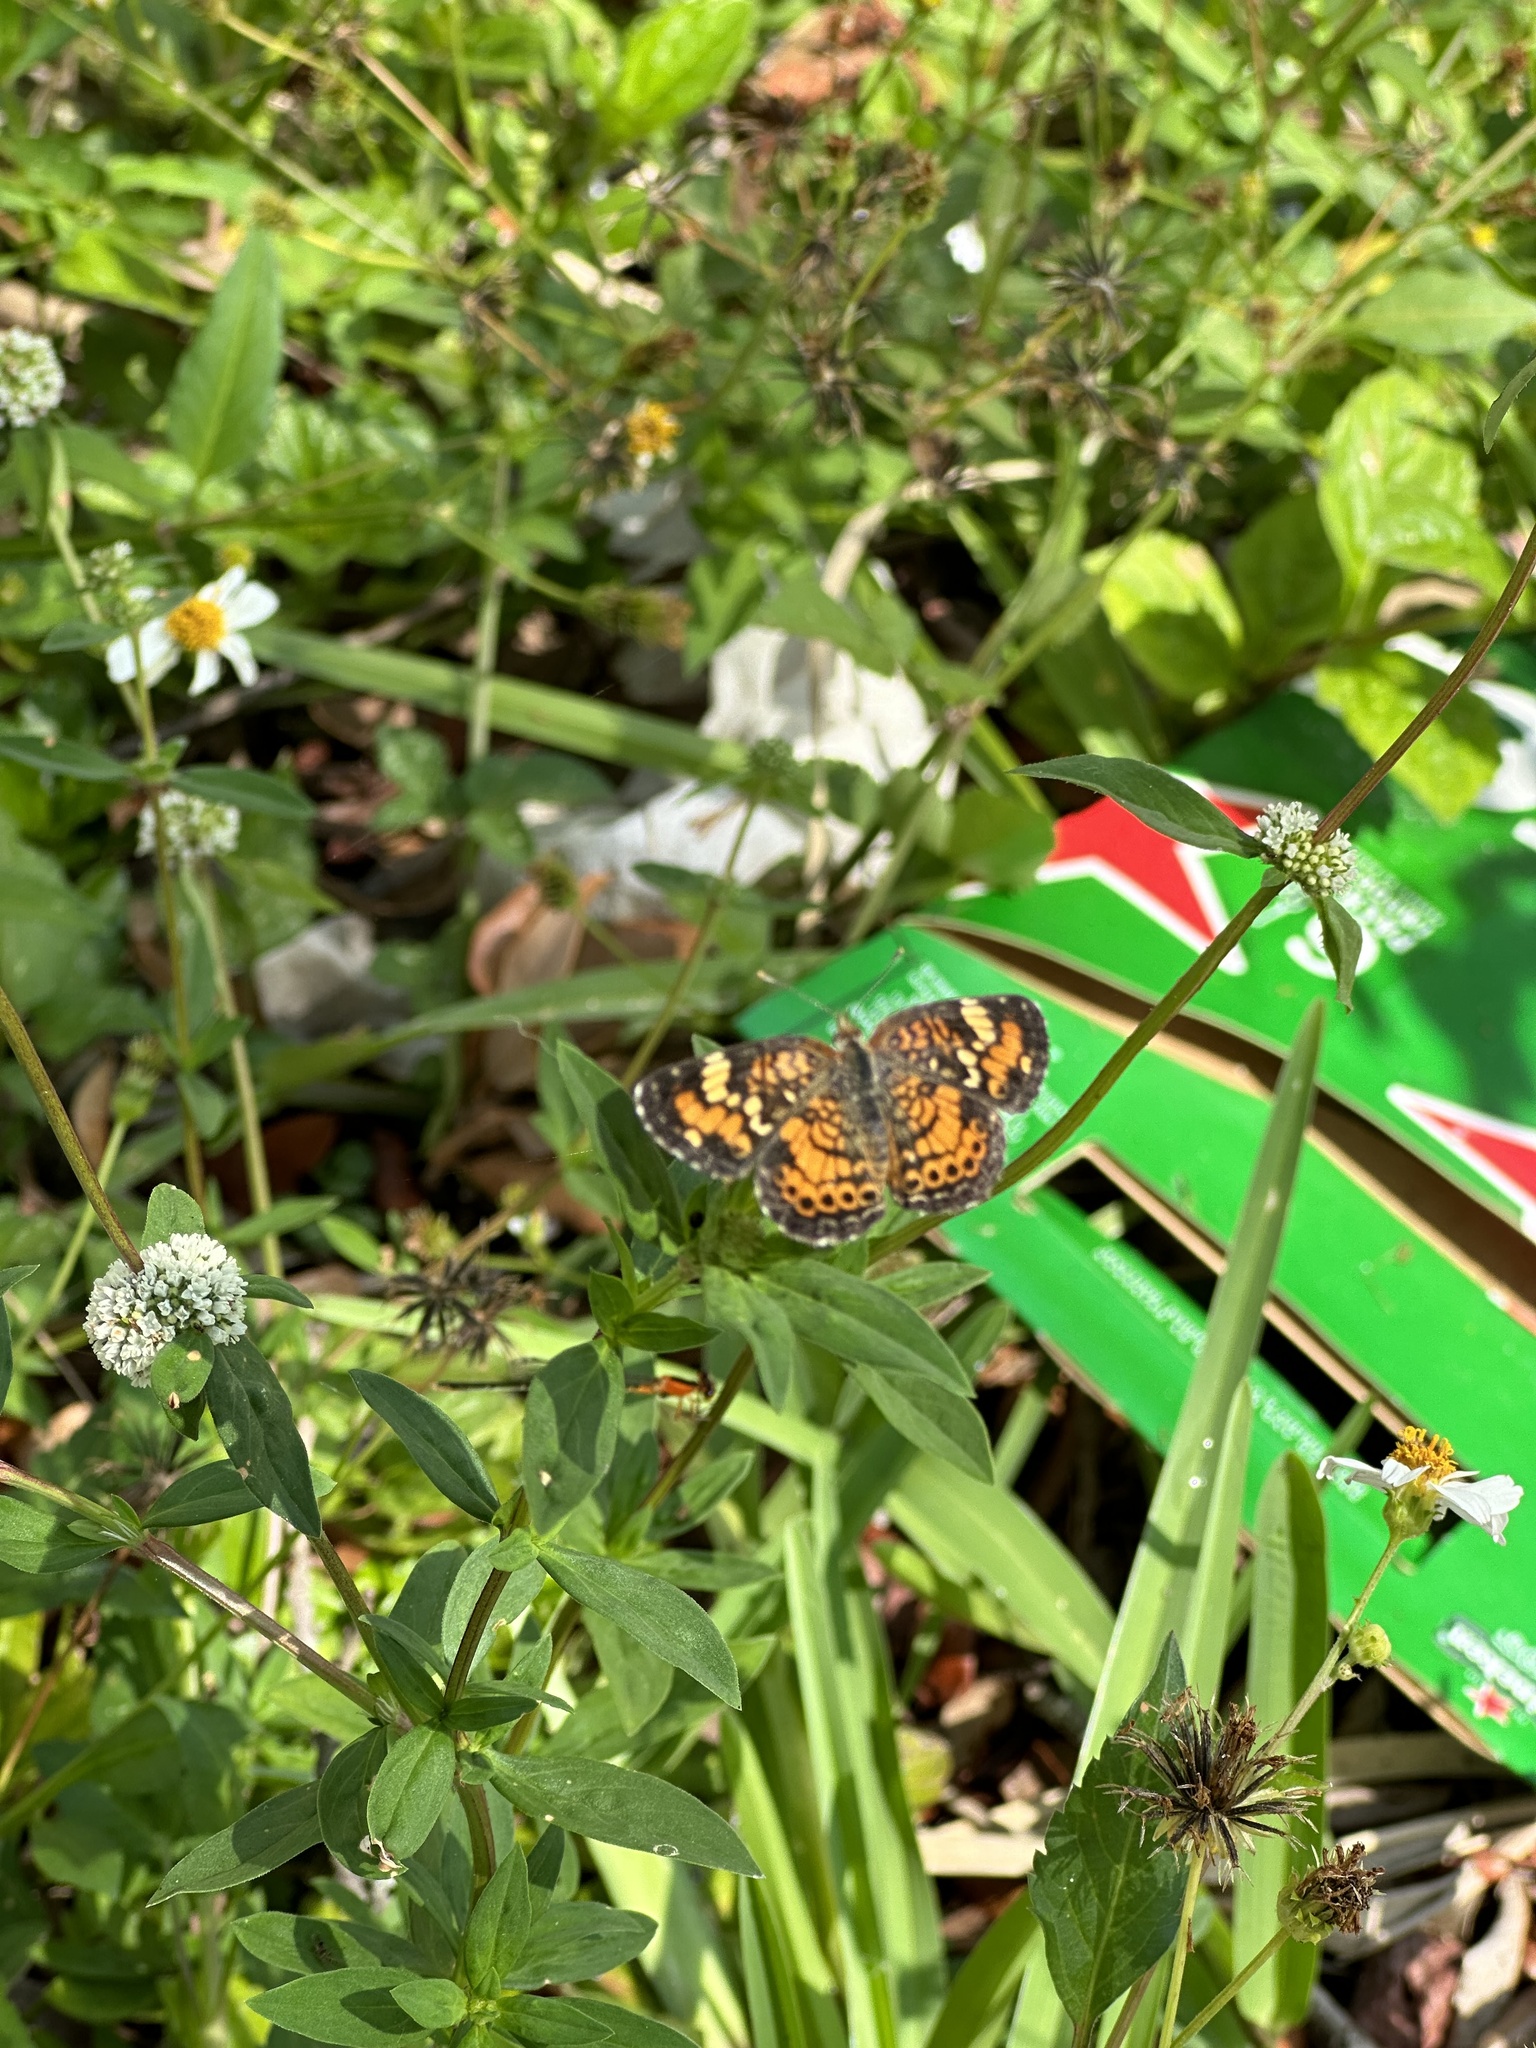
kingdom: Animalia
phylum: Arthropoda
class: Insecta
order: Lepidoptera
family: Nymphalidae
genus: Phyciodes
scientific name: Phyciodes phaon
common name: Phaon crescent
